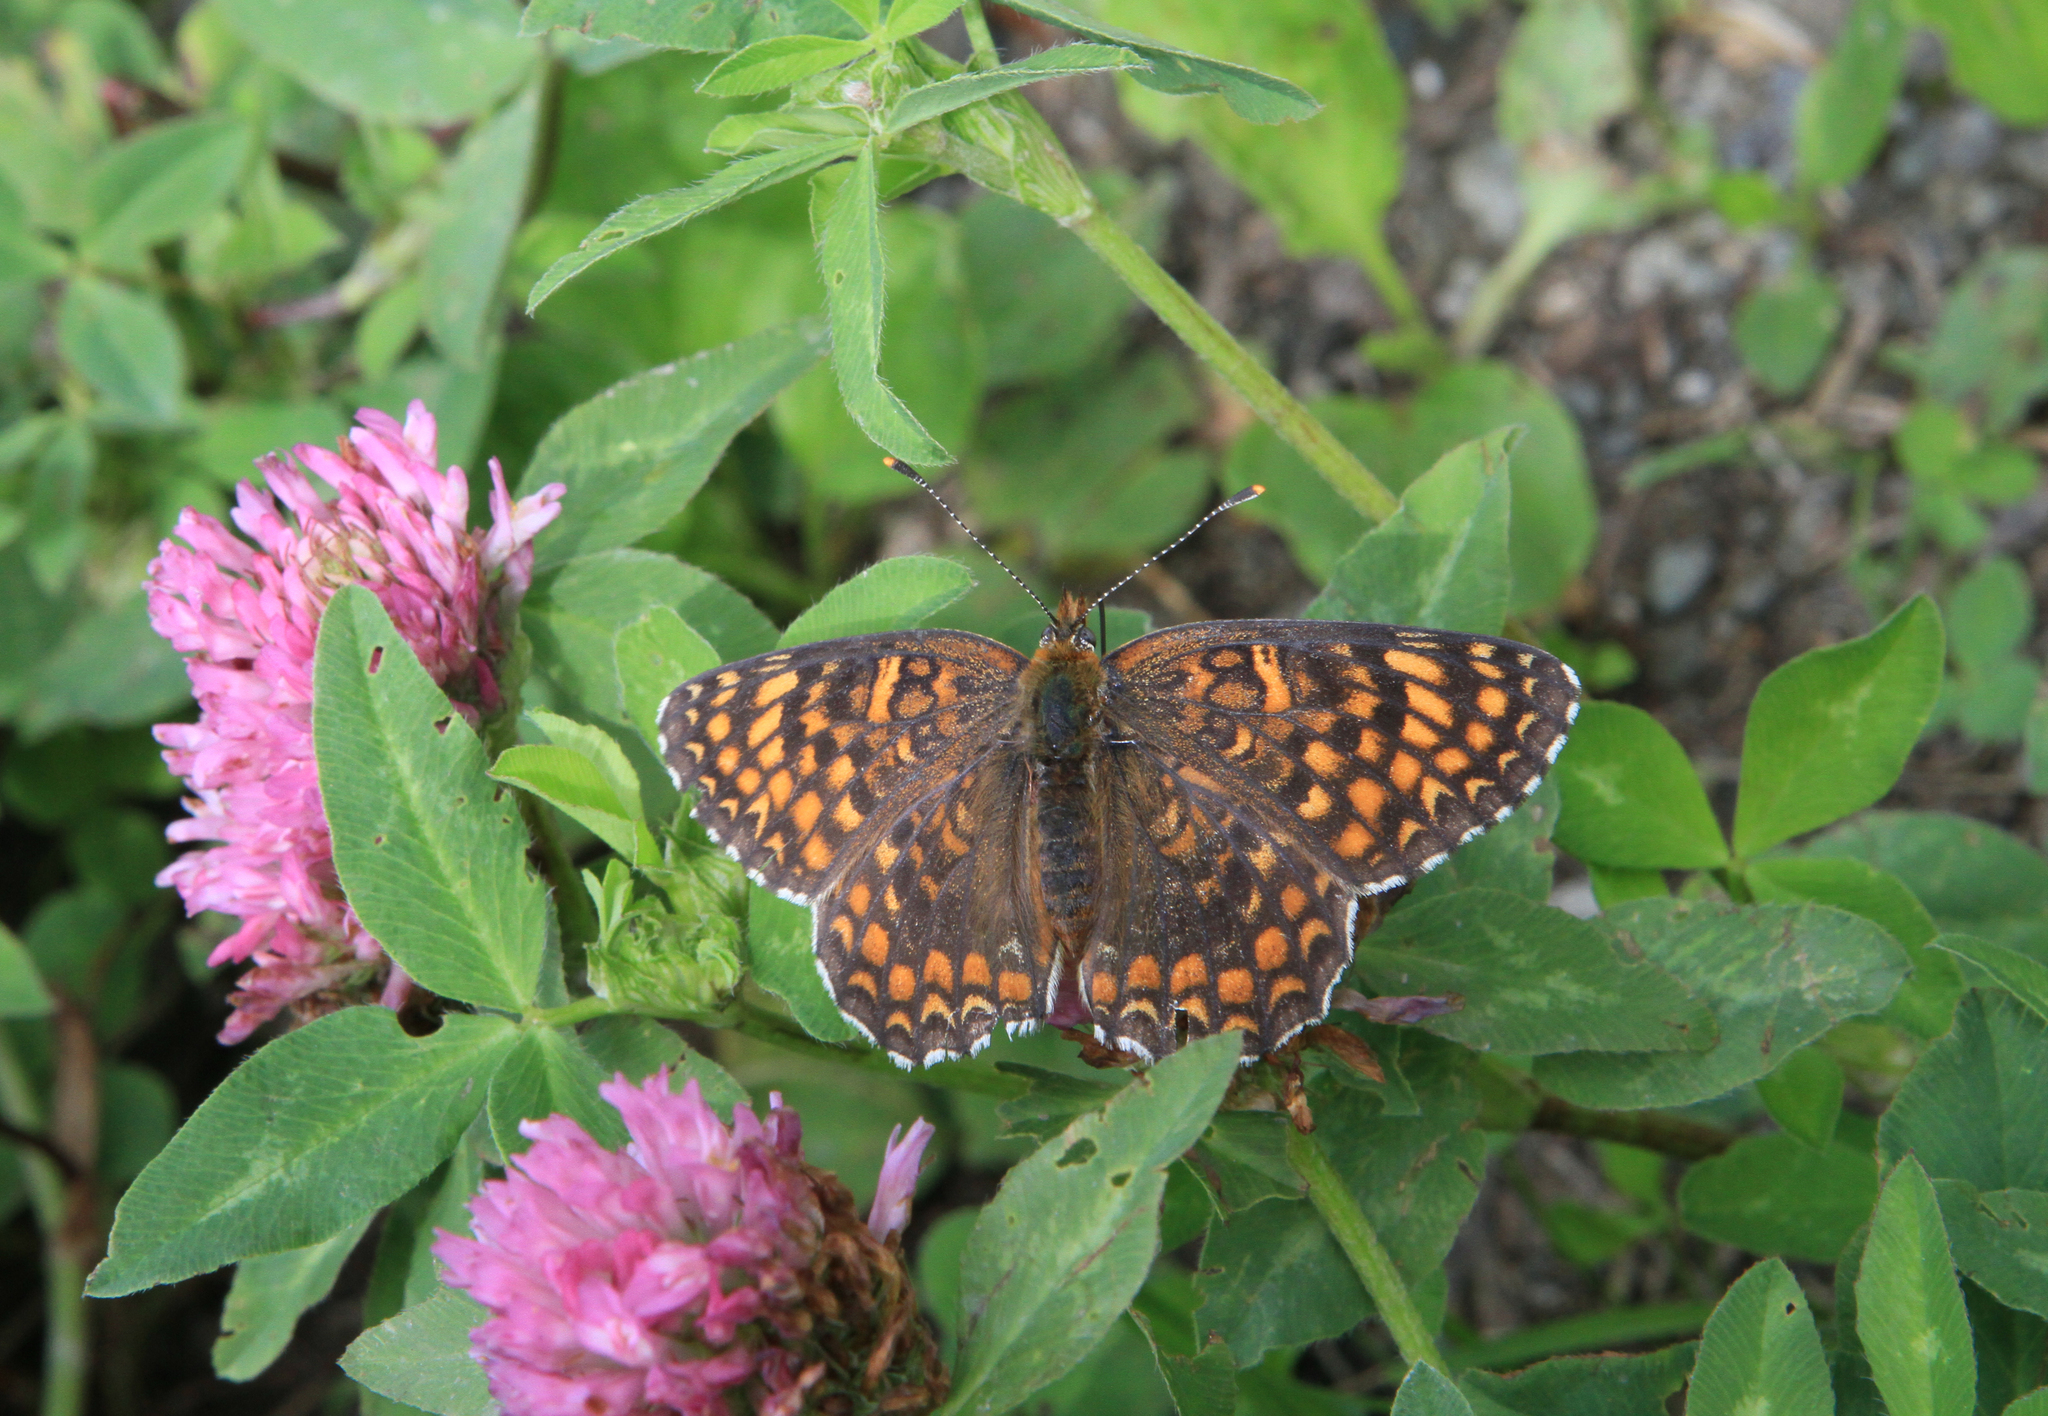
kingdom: Animalia
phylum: Arthropoda
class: Insecta
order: Lepidoptera
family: Nymphalidae
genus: Melitaea
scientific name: Melitaea phoebe
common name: Knapweed fritillary
